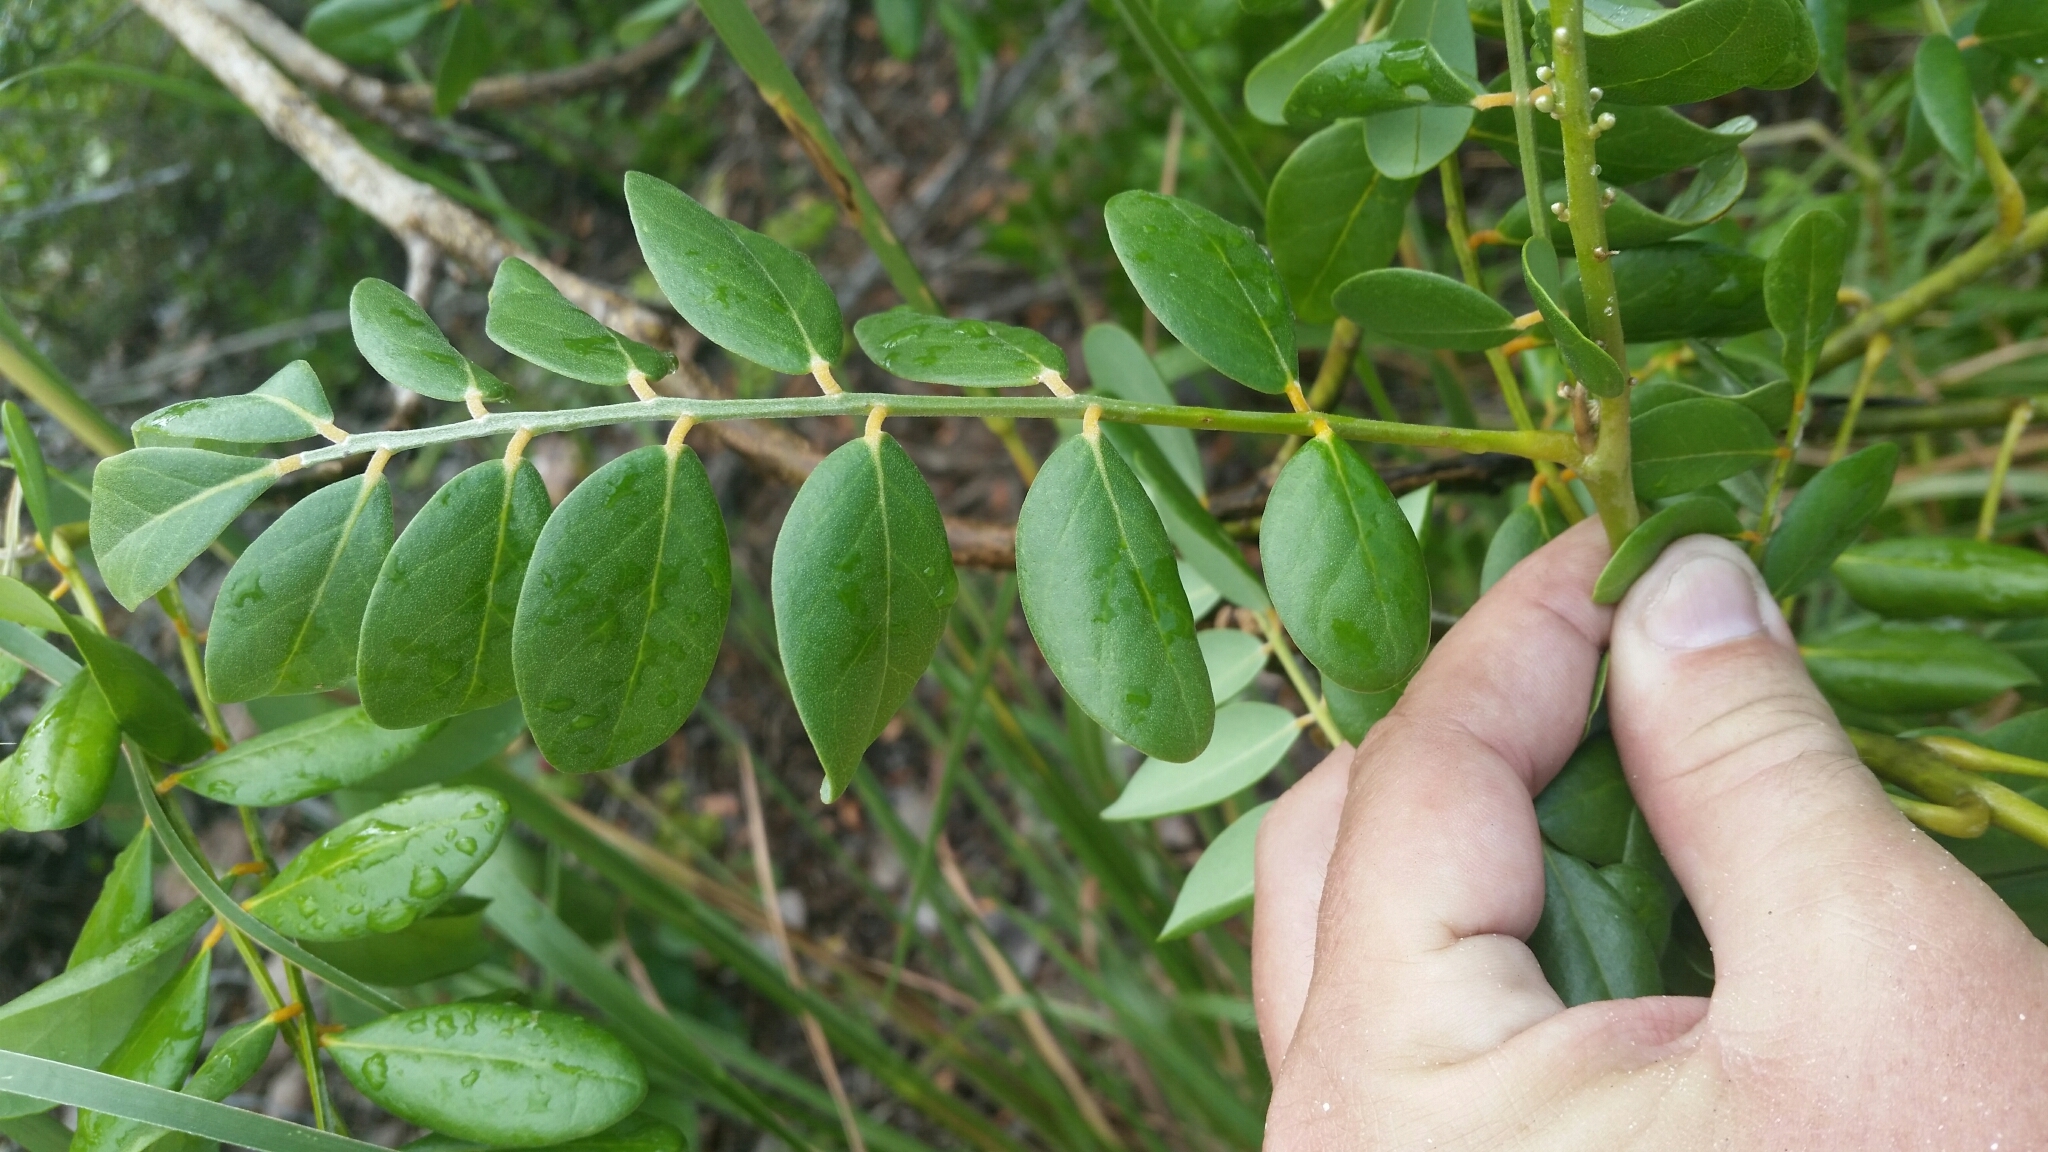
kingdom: Plantae
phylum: Tracheophyta
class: Magnoliopsida
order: Fabales
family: Fabaceae
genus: Sophora
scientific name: Sophora tomentosa
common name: Yellow necklacepod
